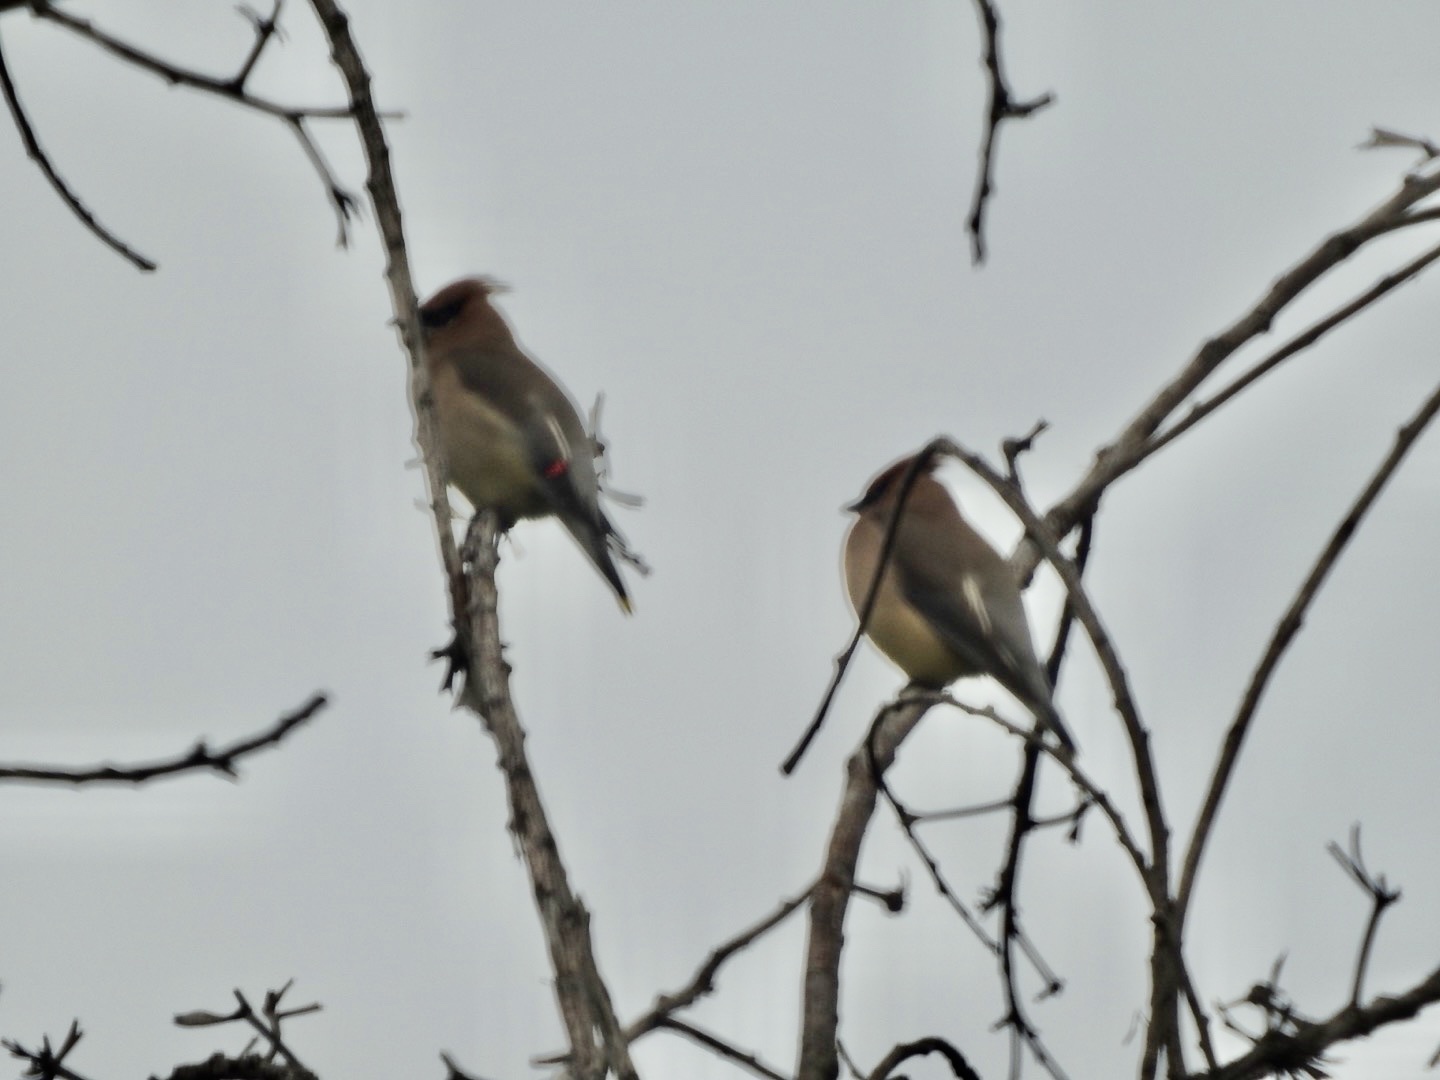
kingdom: Animalia
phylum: Chordata
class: Aves
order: Passeriformes
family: Bombycillidae
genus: Bombycilla
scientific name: Bombycilla cedrorum
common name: Cedar waxwing
